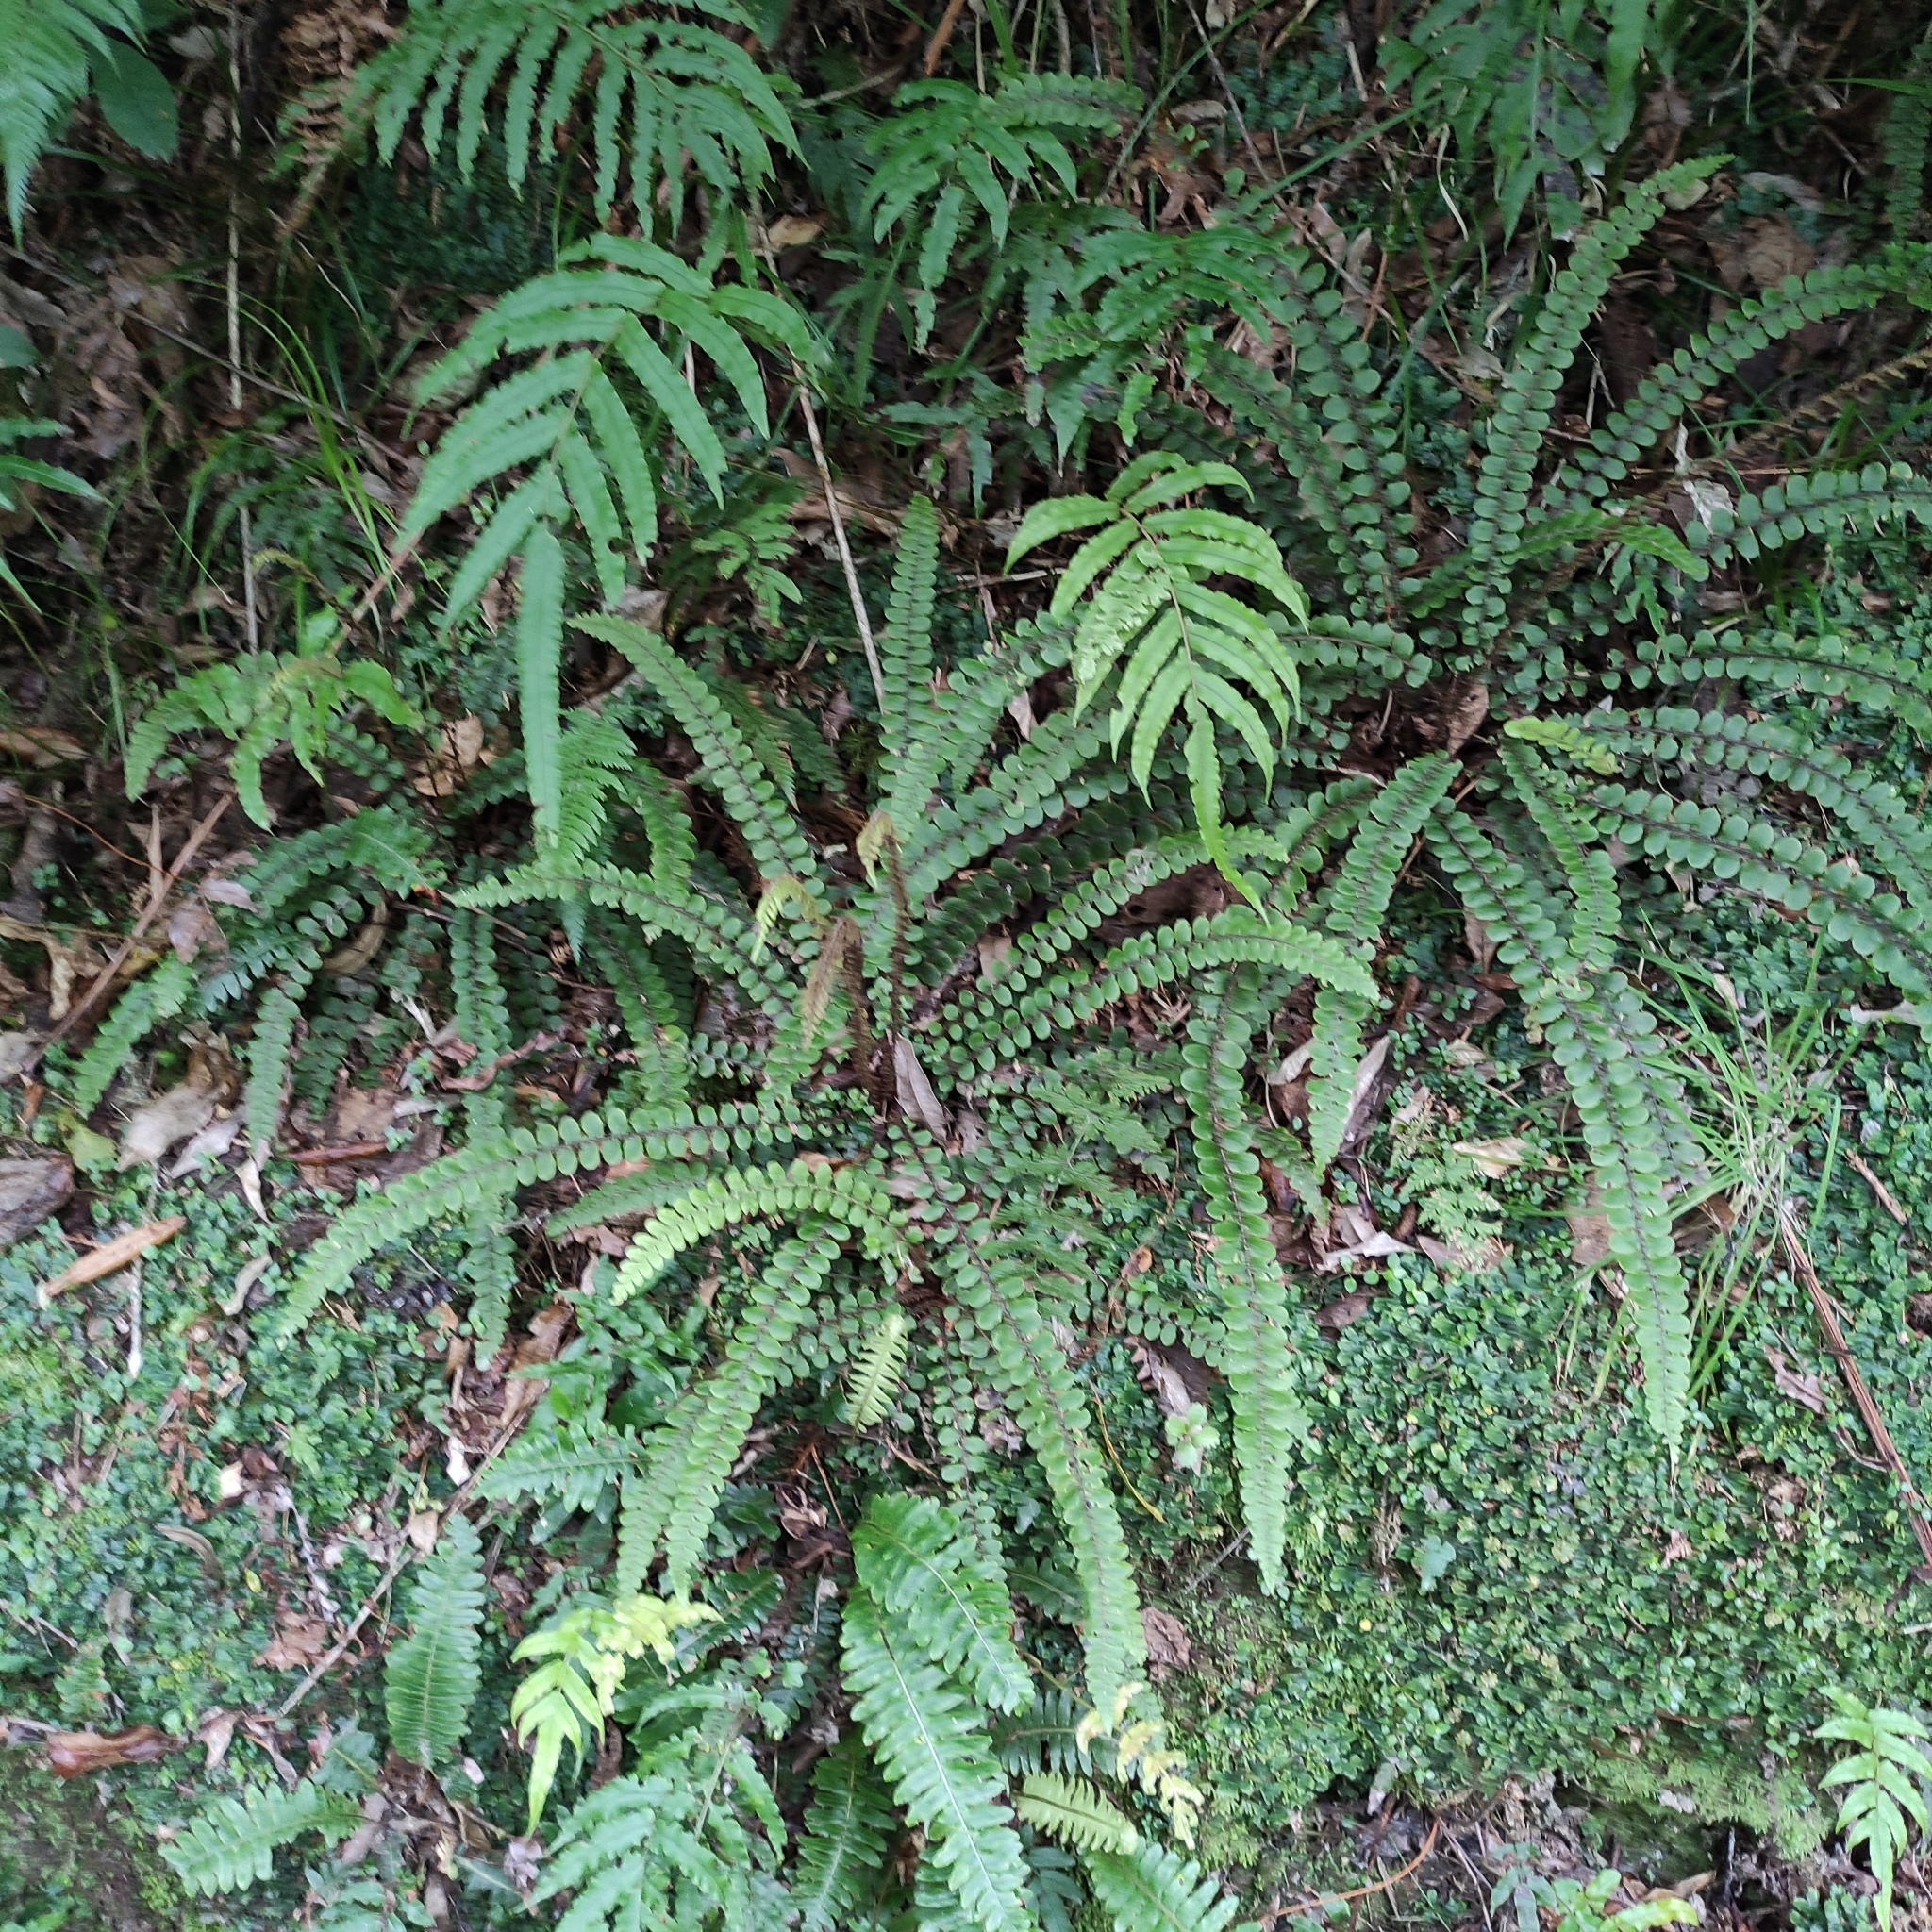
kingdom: Plantae
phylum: Tracheophyta
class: Polypodiopsida
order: Polypodiales
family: Blechnaceae
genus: Cranfillia
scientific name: Cranfillia fluviatilis
